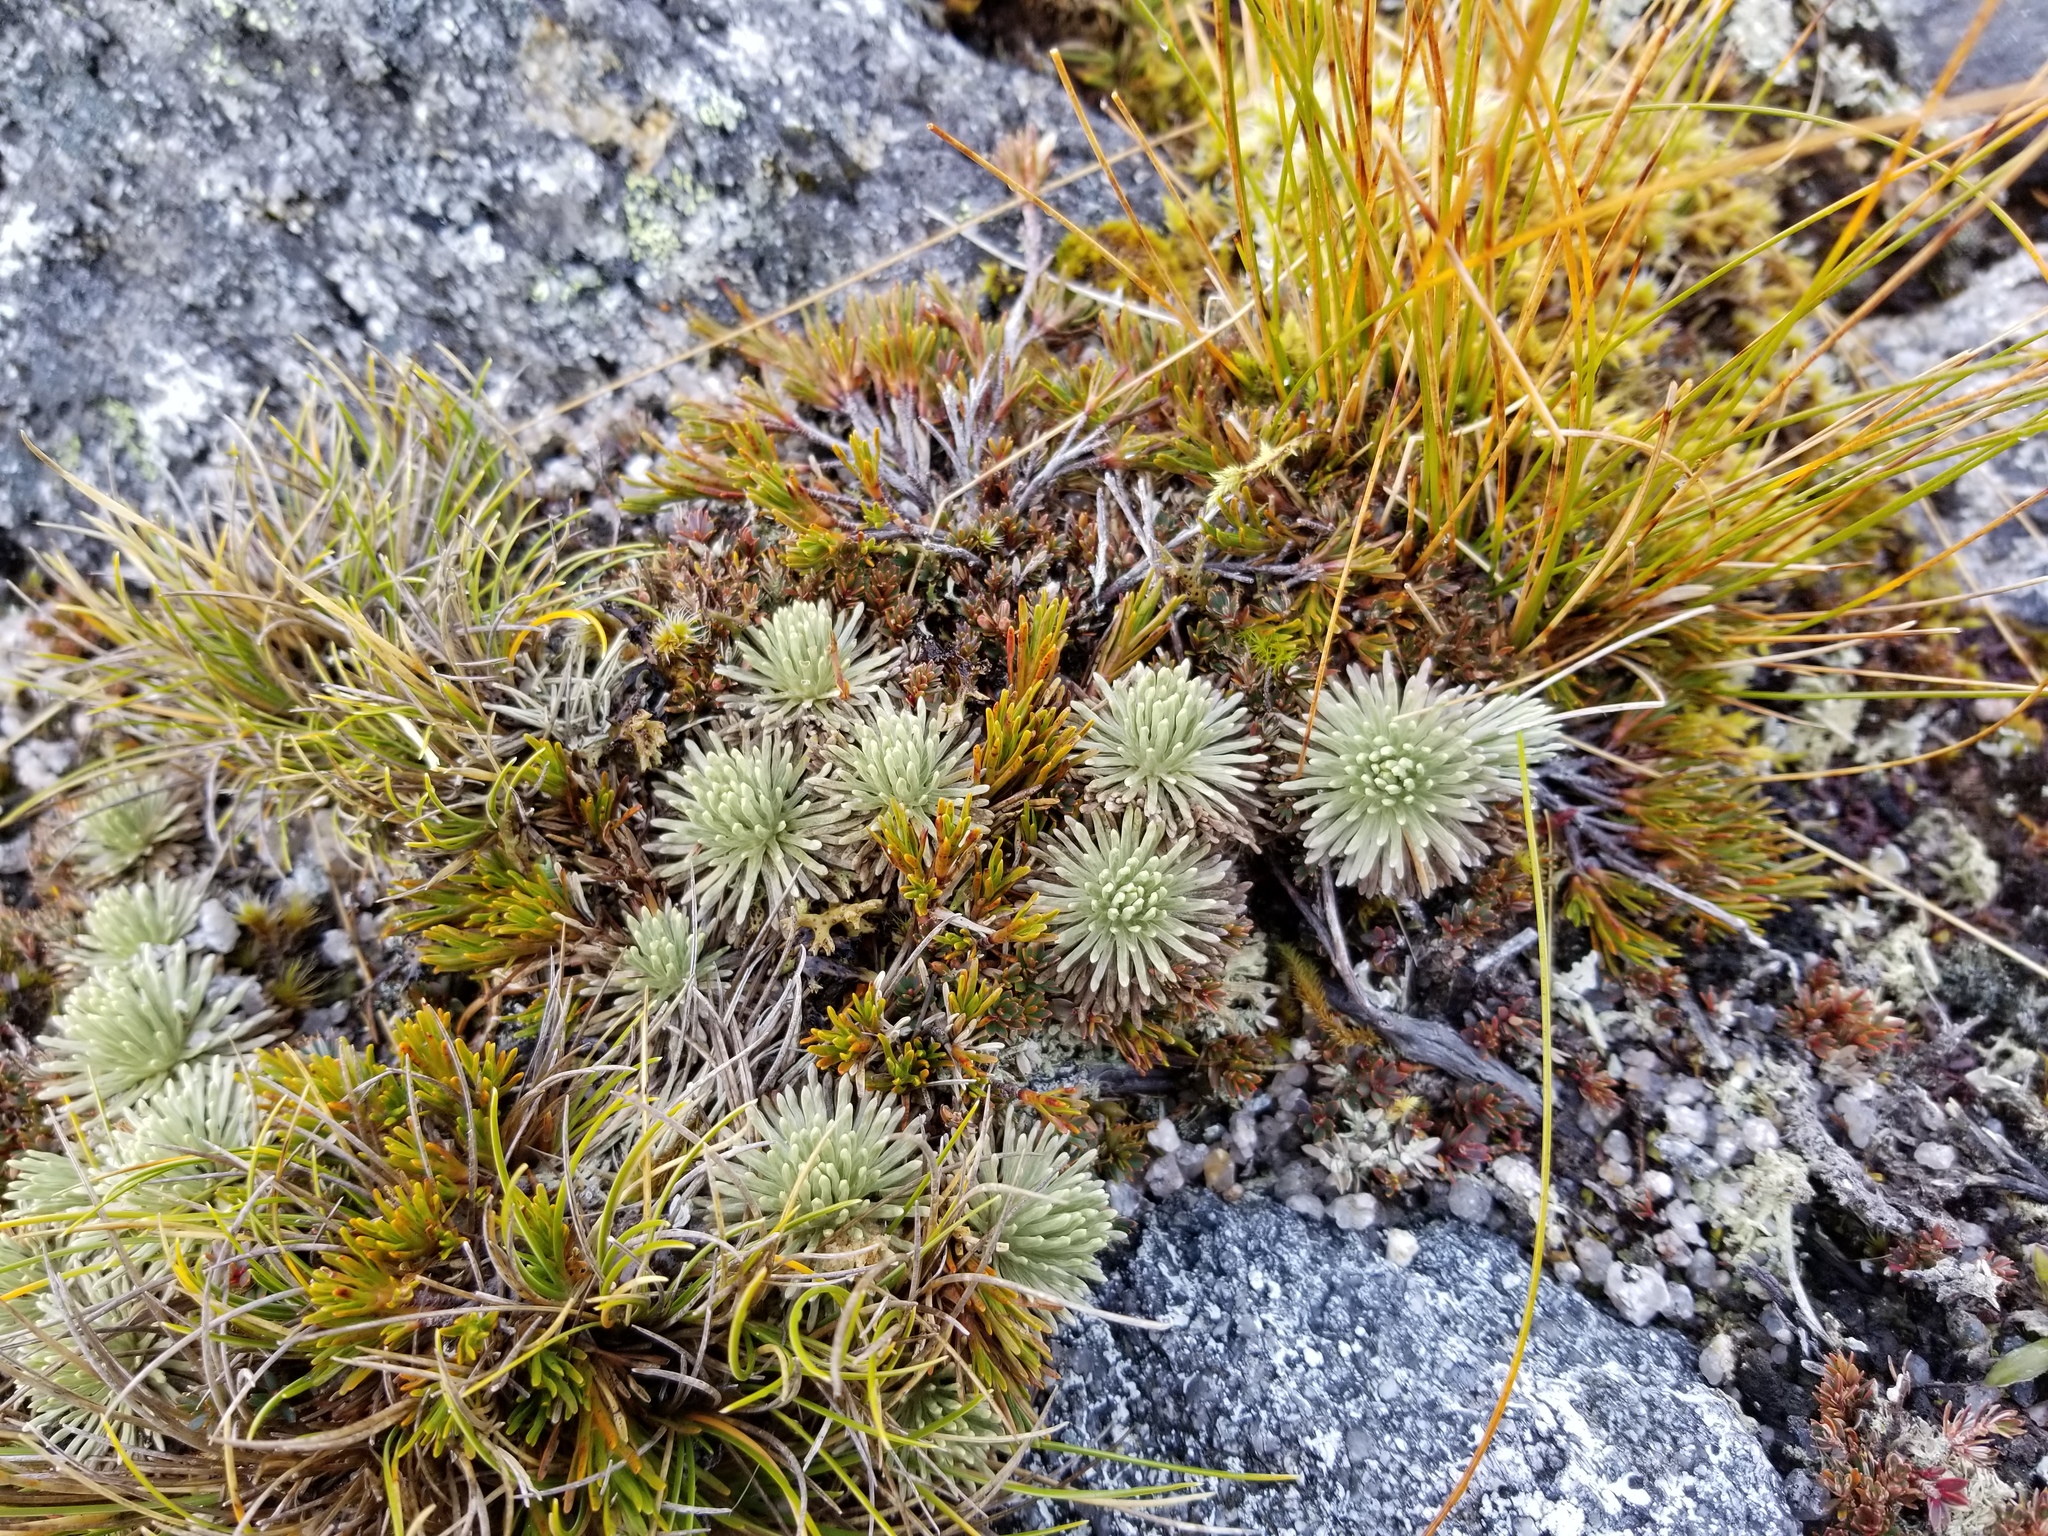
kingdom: Plantae
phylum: Tracheophyta
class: Magnoliopsida
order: Asterales
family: Asteraceae
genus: Celmisia
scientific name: Celmisia sessiliflora
